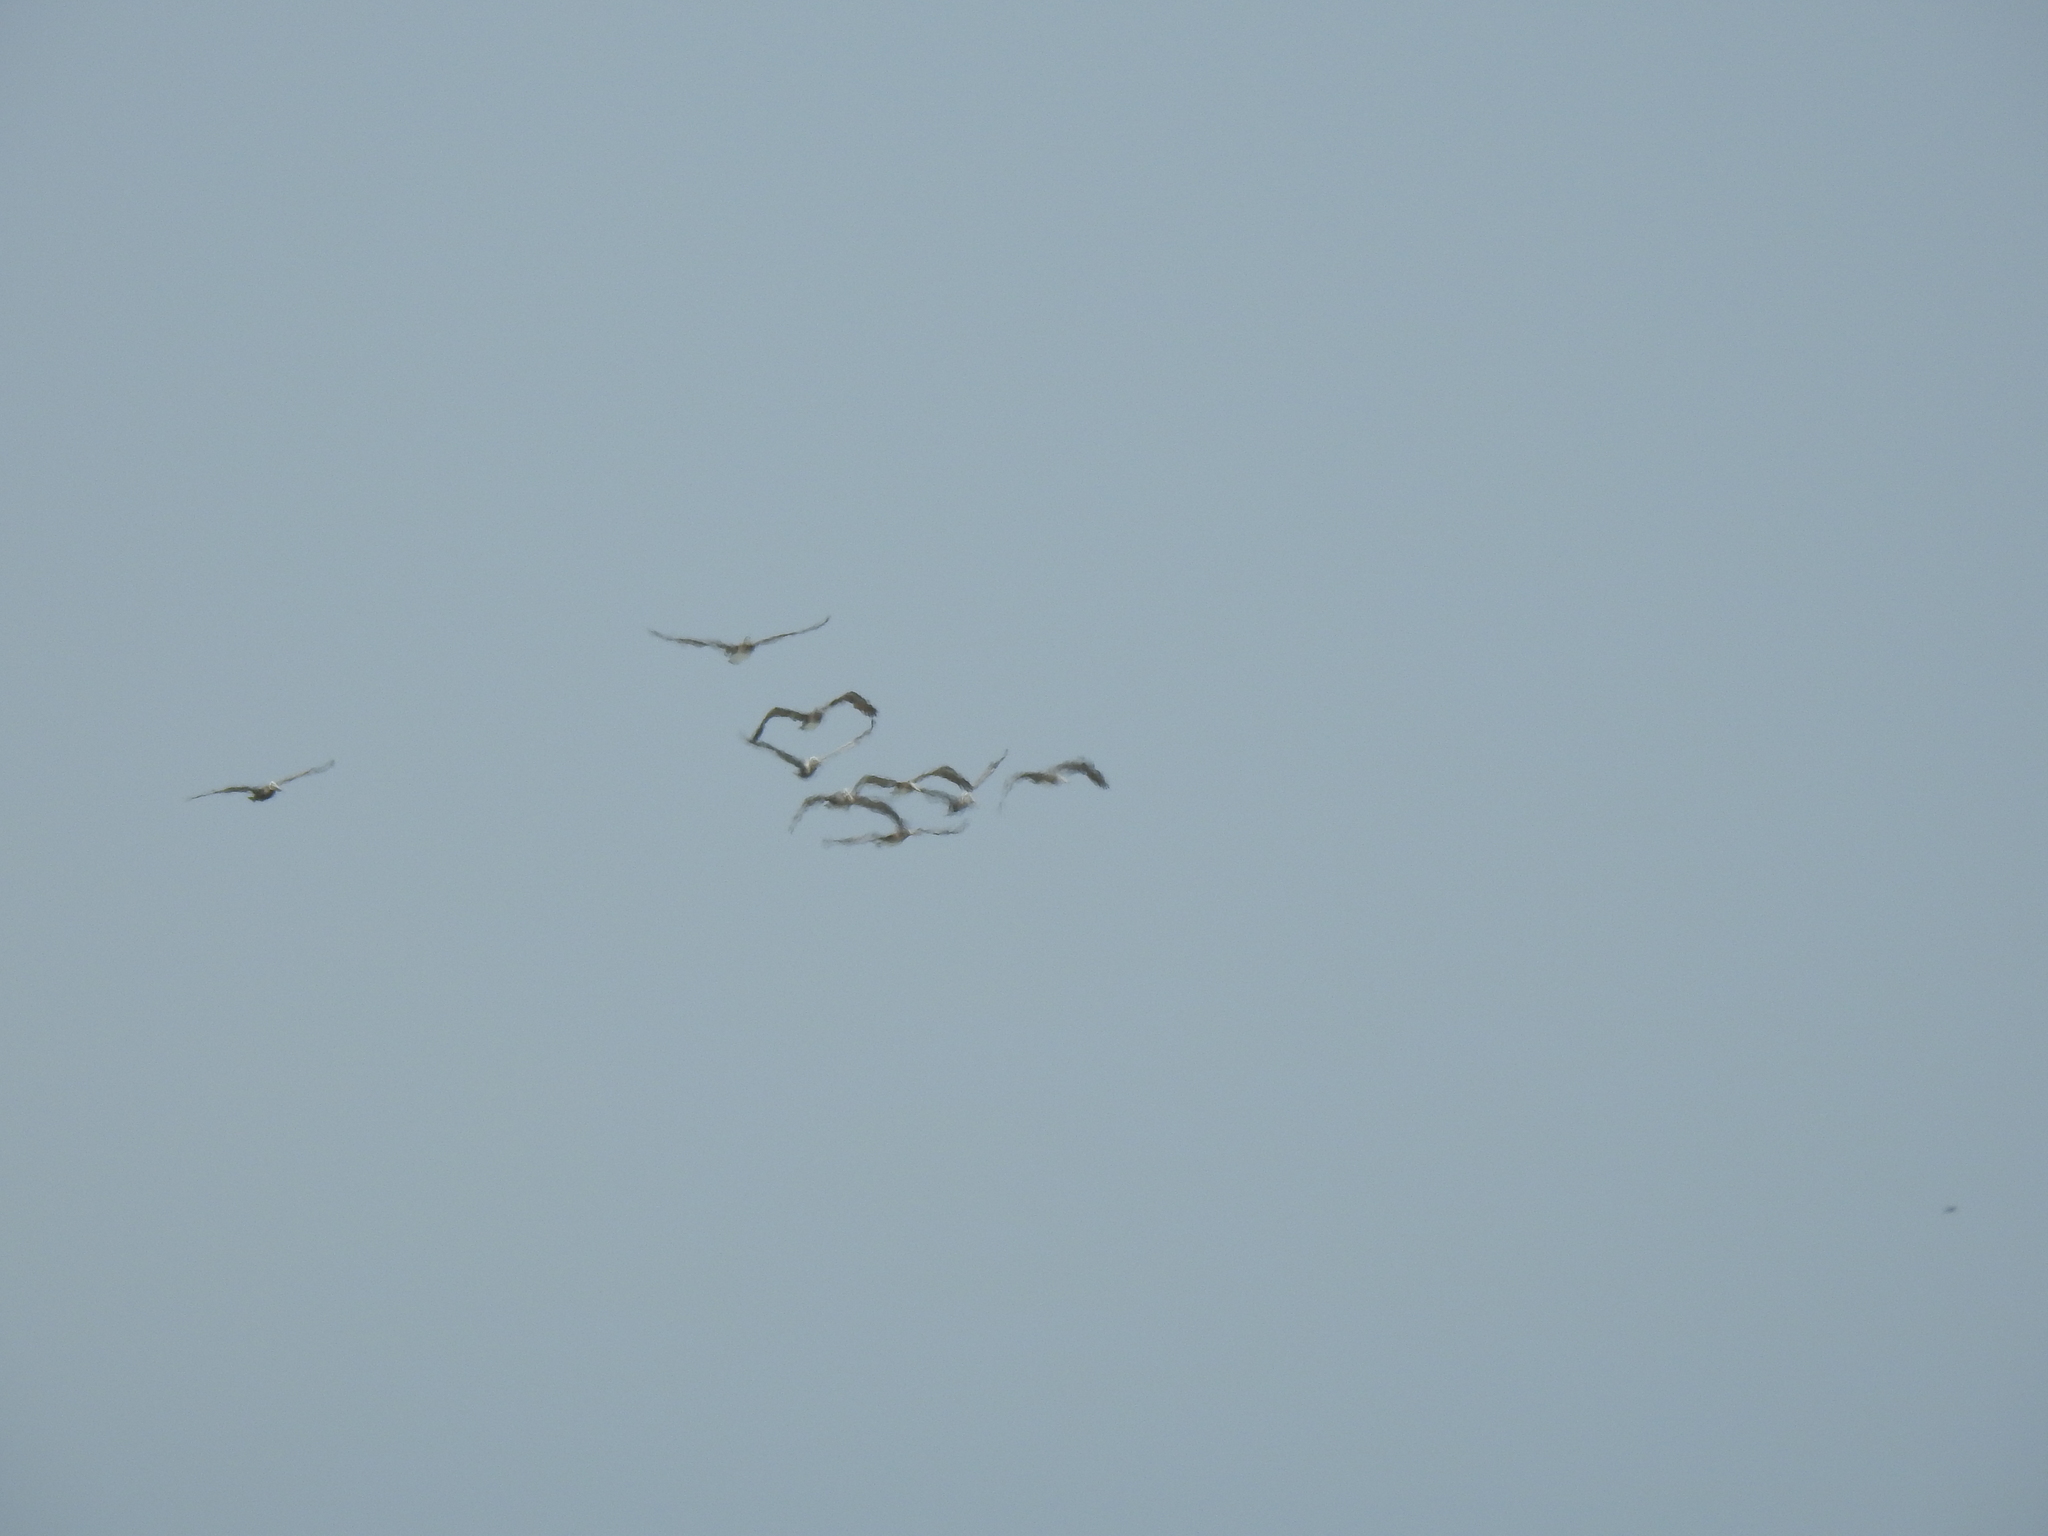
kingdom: Animalia
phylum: Chordata
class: Aves
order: Pelecaniformes
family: Pelecanidae
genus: Pelecanus
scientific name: Pelecanus occidentalis
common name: Brown pelican
